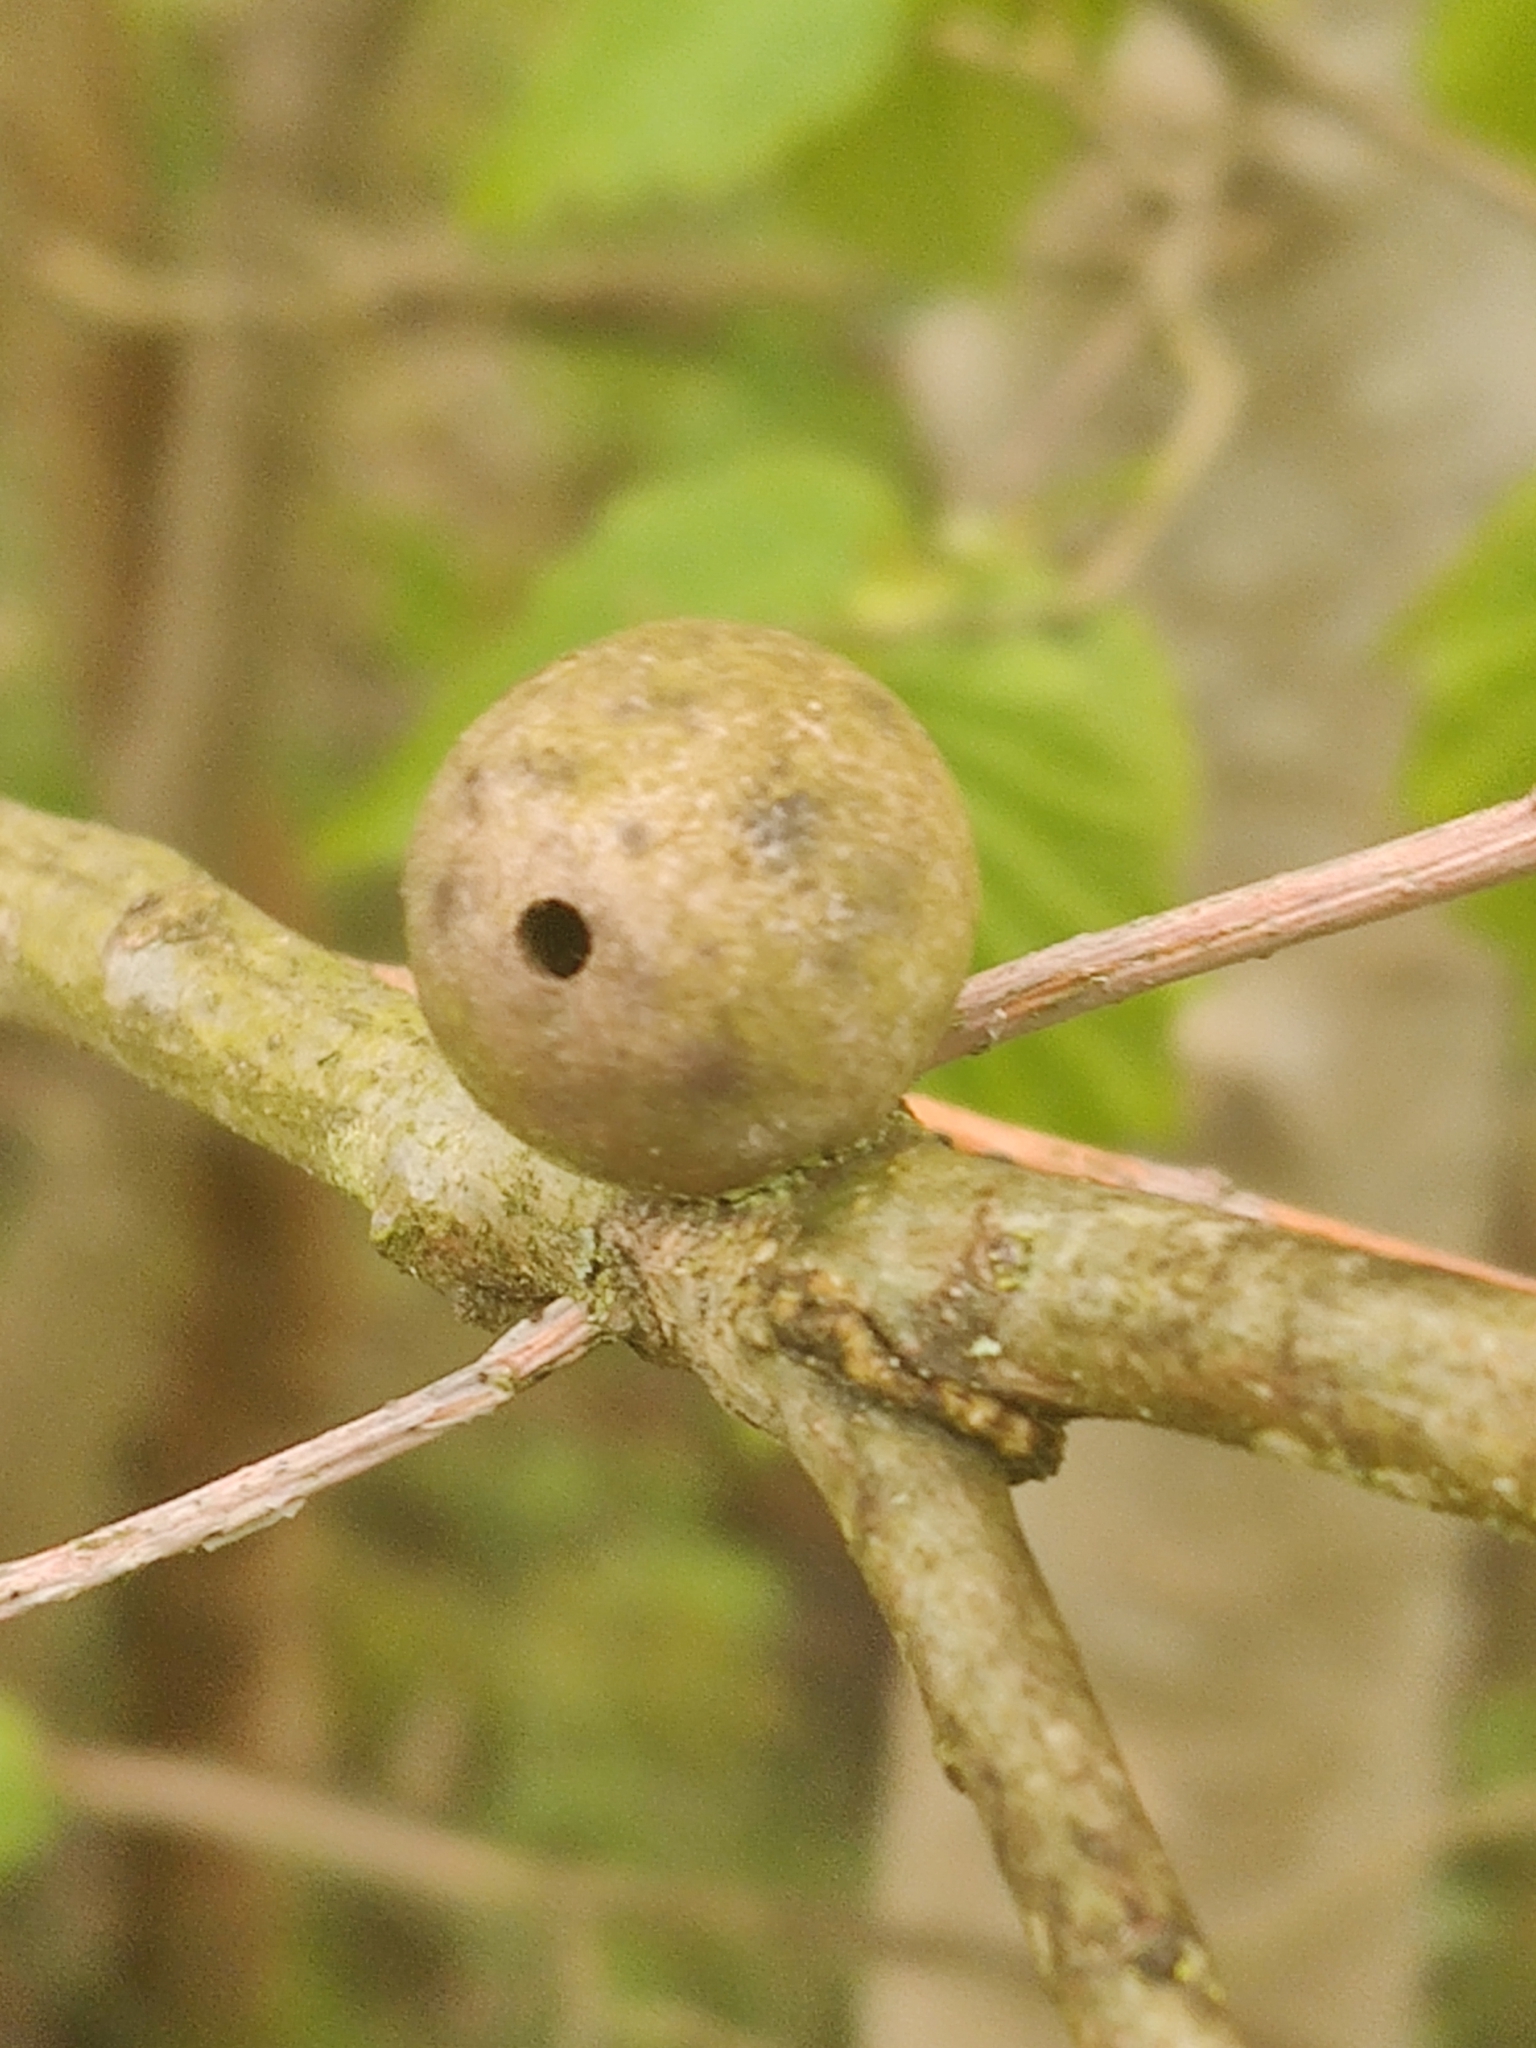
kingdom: Animalia
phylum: Arthropoda
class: Insecta
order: Hymenoptera
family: Cynipidae
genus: Andricus
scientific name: Andricus kollari
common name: Marble gall
